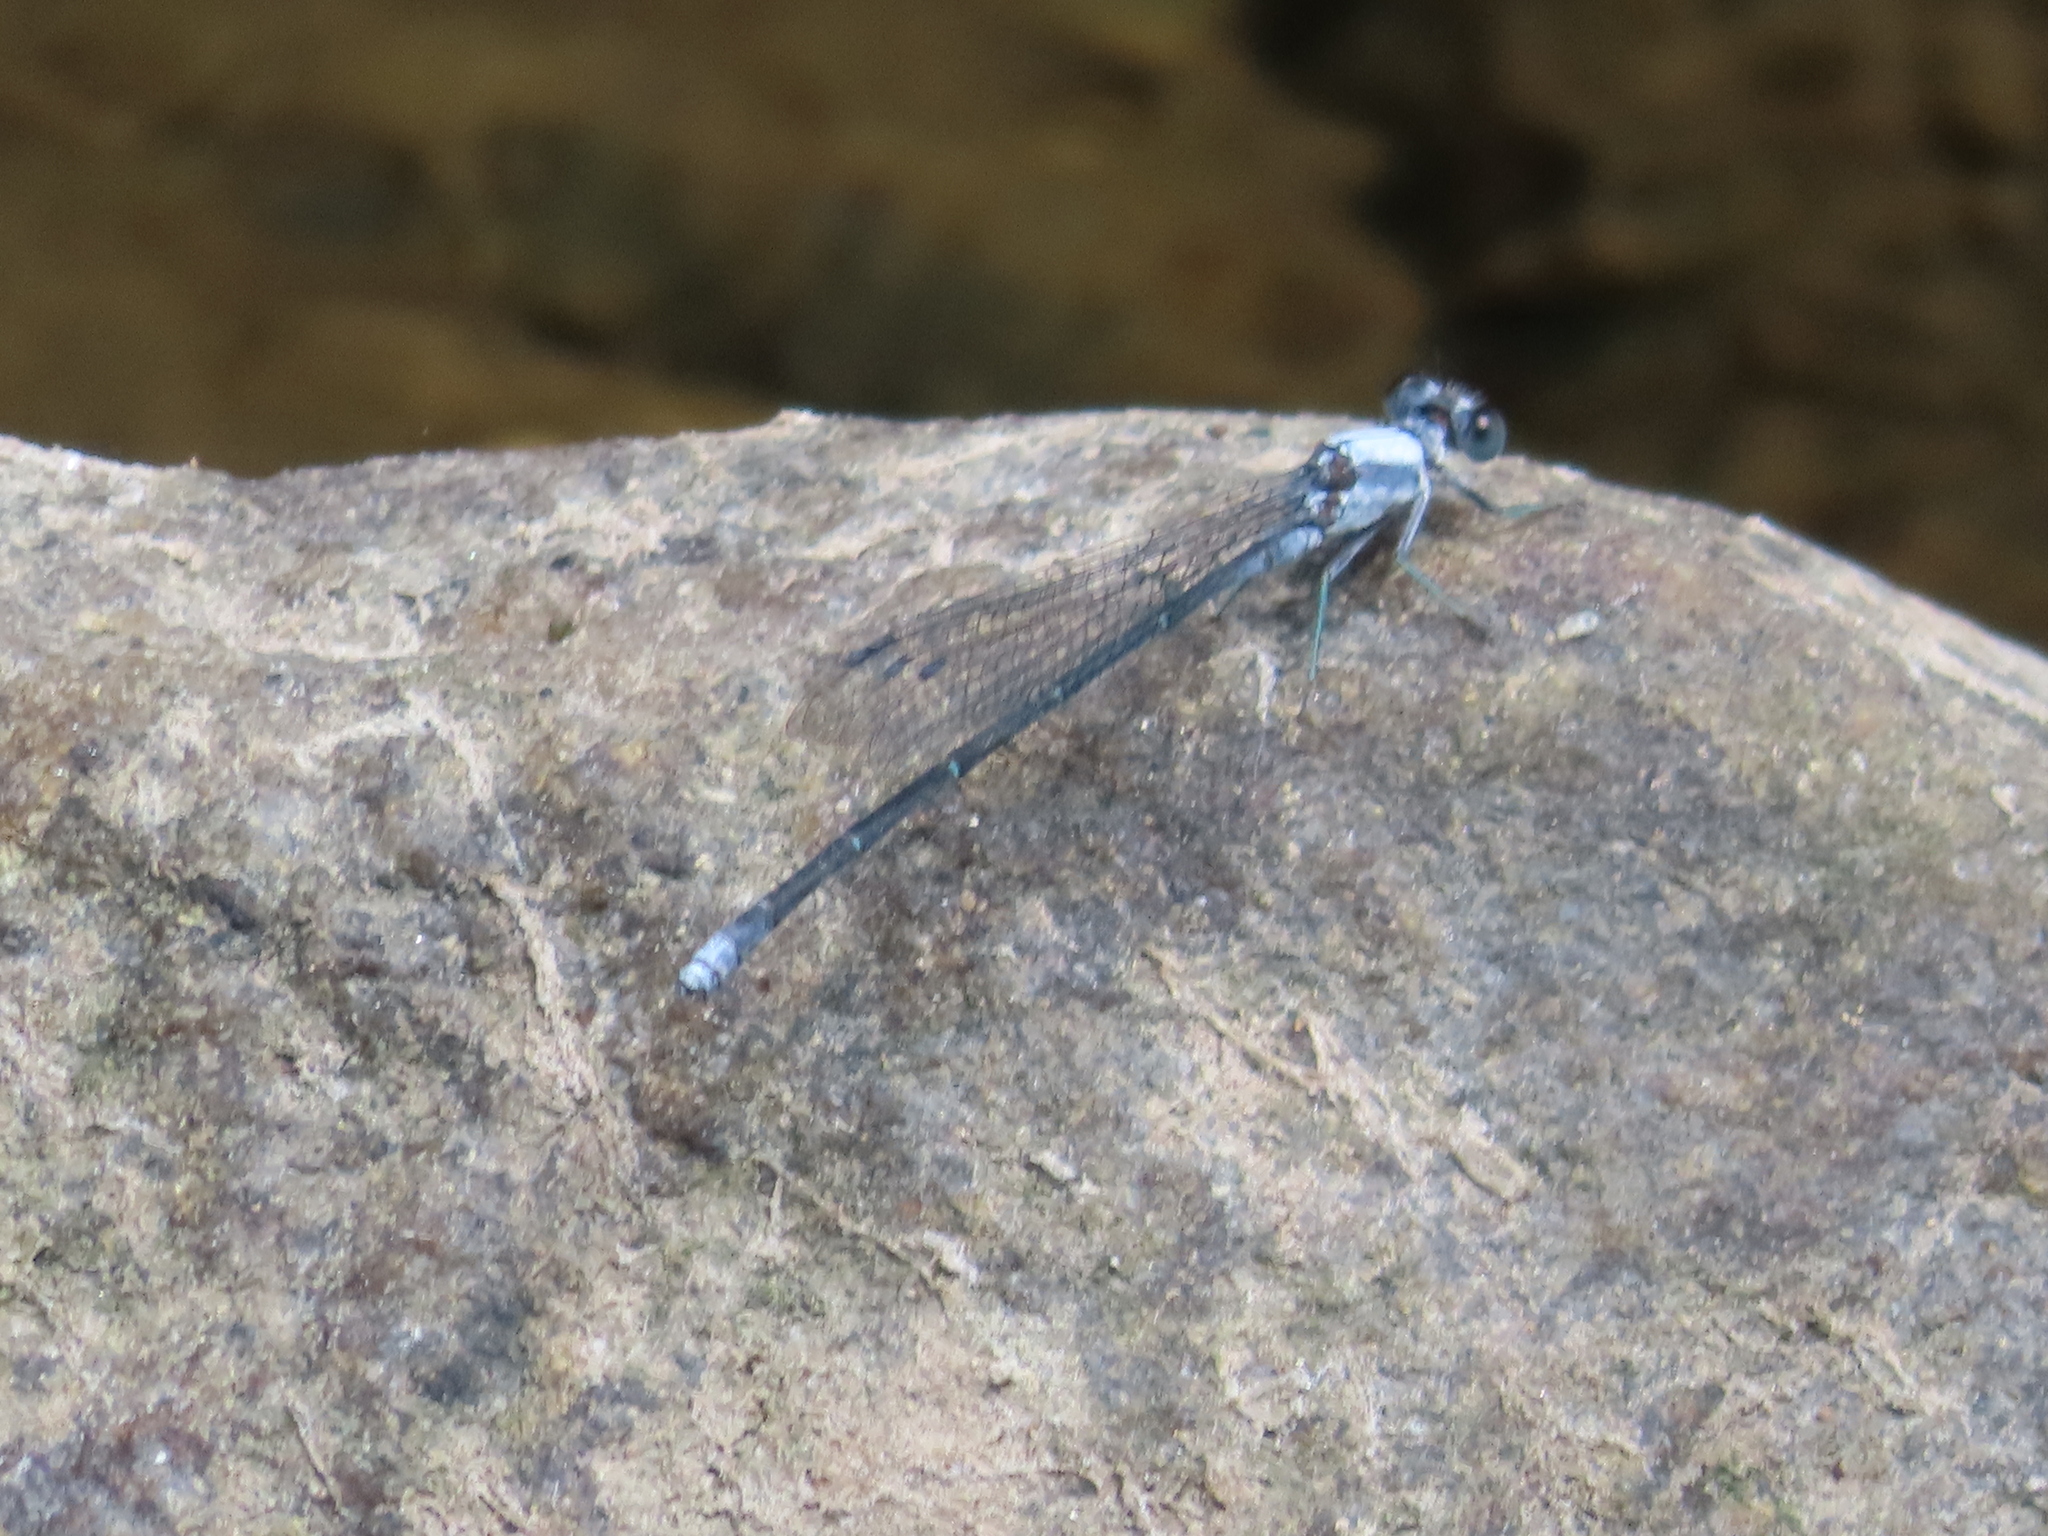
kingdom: Animalia
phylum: Arthropoda
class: Insecta
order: Odonata
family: Coenagrionidae
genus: Argia
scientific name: Argia moesta
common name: Powdered dancer
